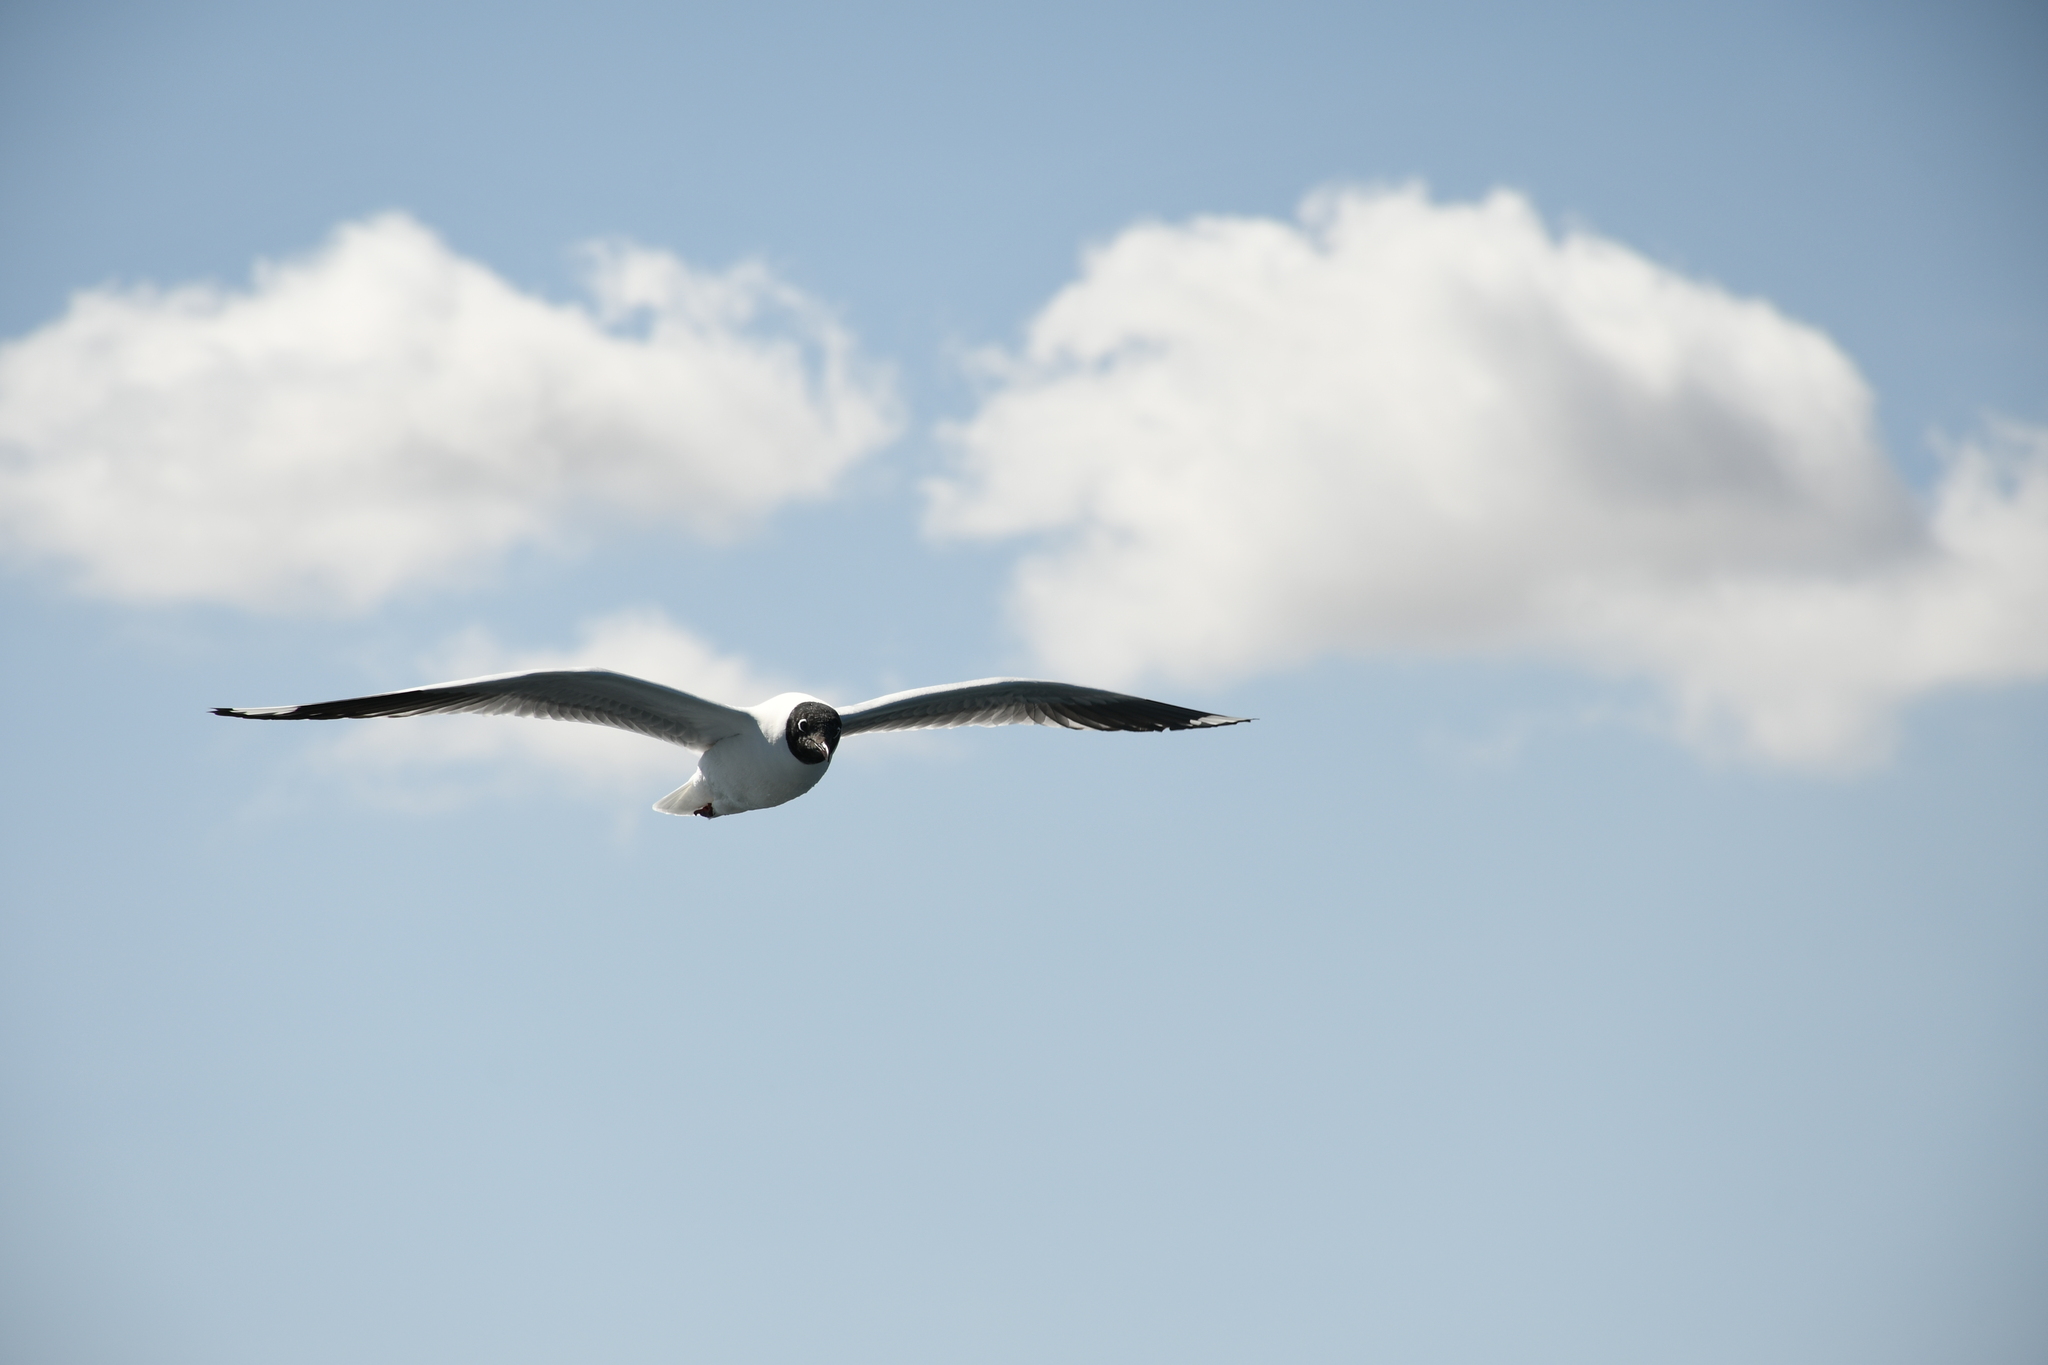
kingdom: Animalia
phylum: Chordata
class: Aves
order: Charadriiformes
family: Laridae
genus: Chroicocephalus
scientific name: Chroicocephalus serranus
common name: Andean gull
